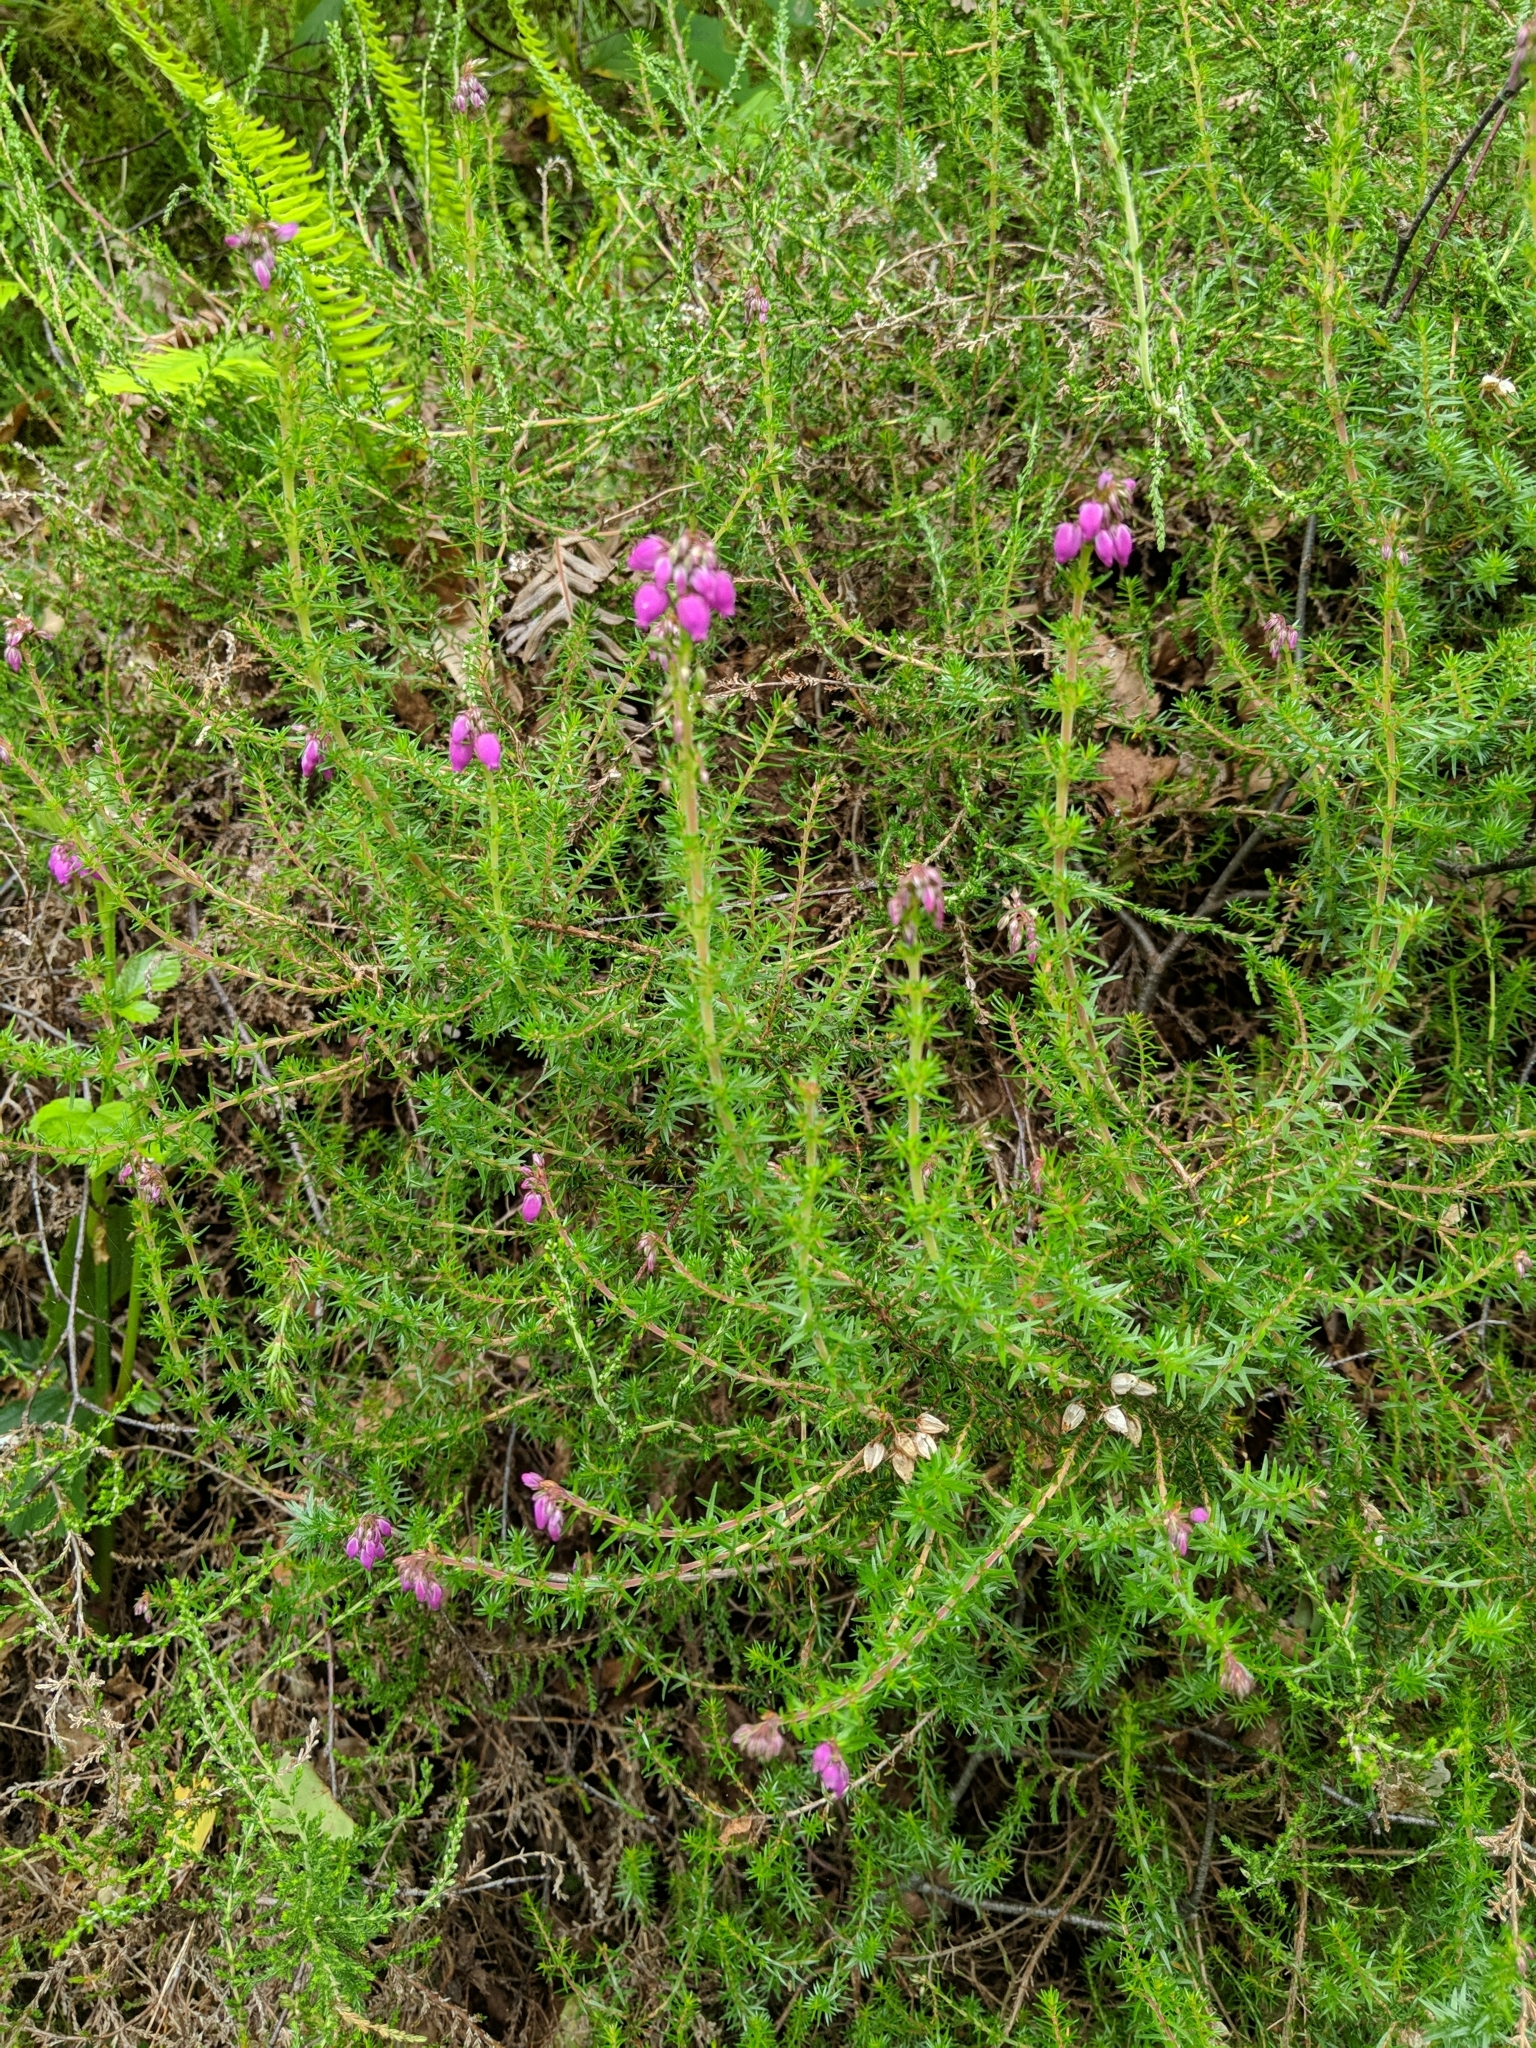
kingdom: Plantae
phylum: Tracheophyta
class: Magnoliopsida
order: Ericales
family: Ericaceae
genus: Erica
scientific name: Erica cinerea
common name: Bell heather
